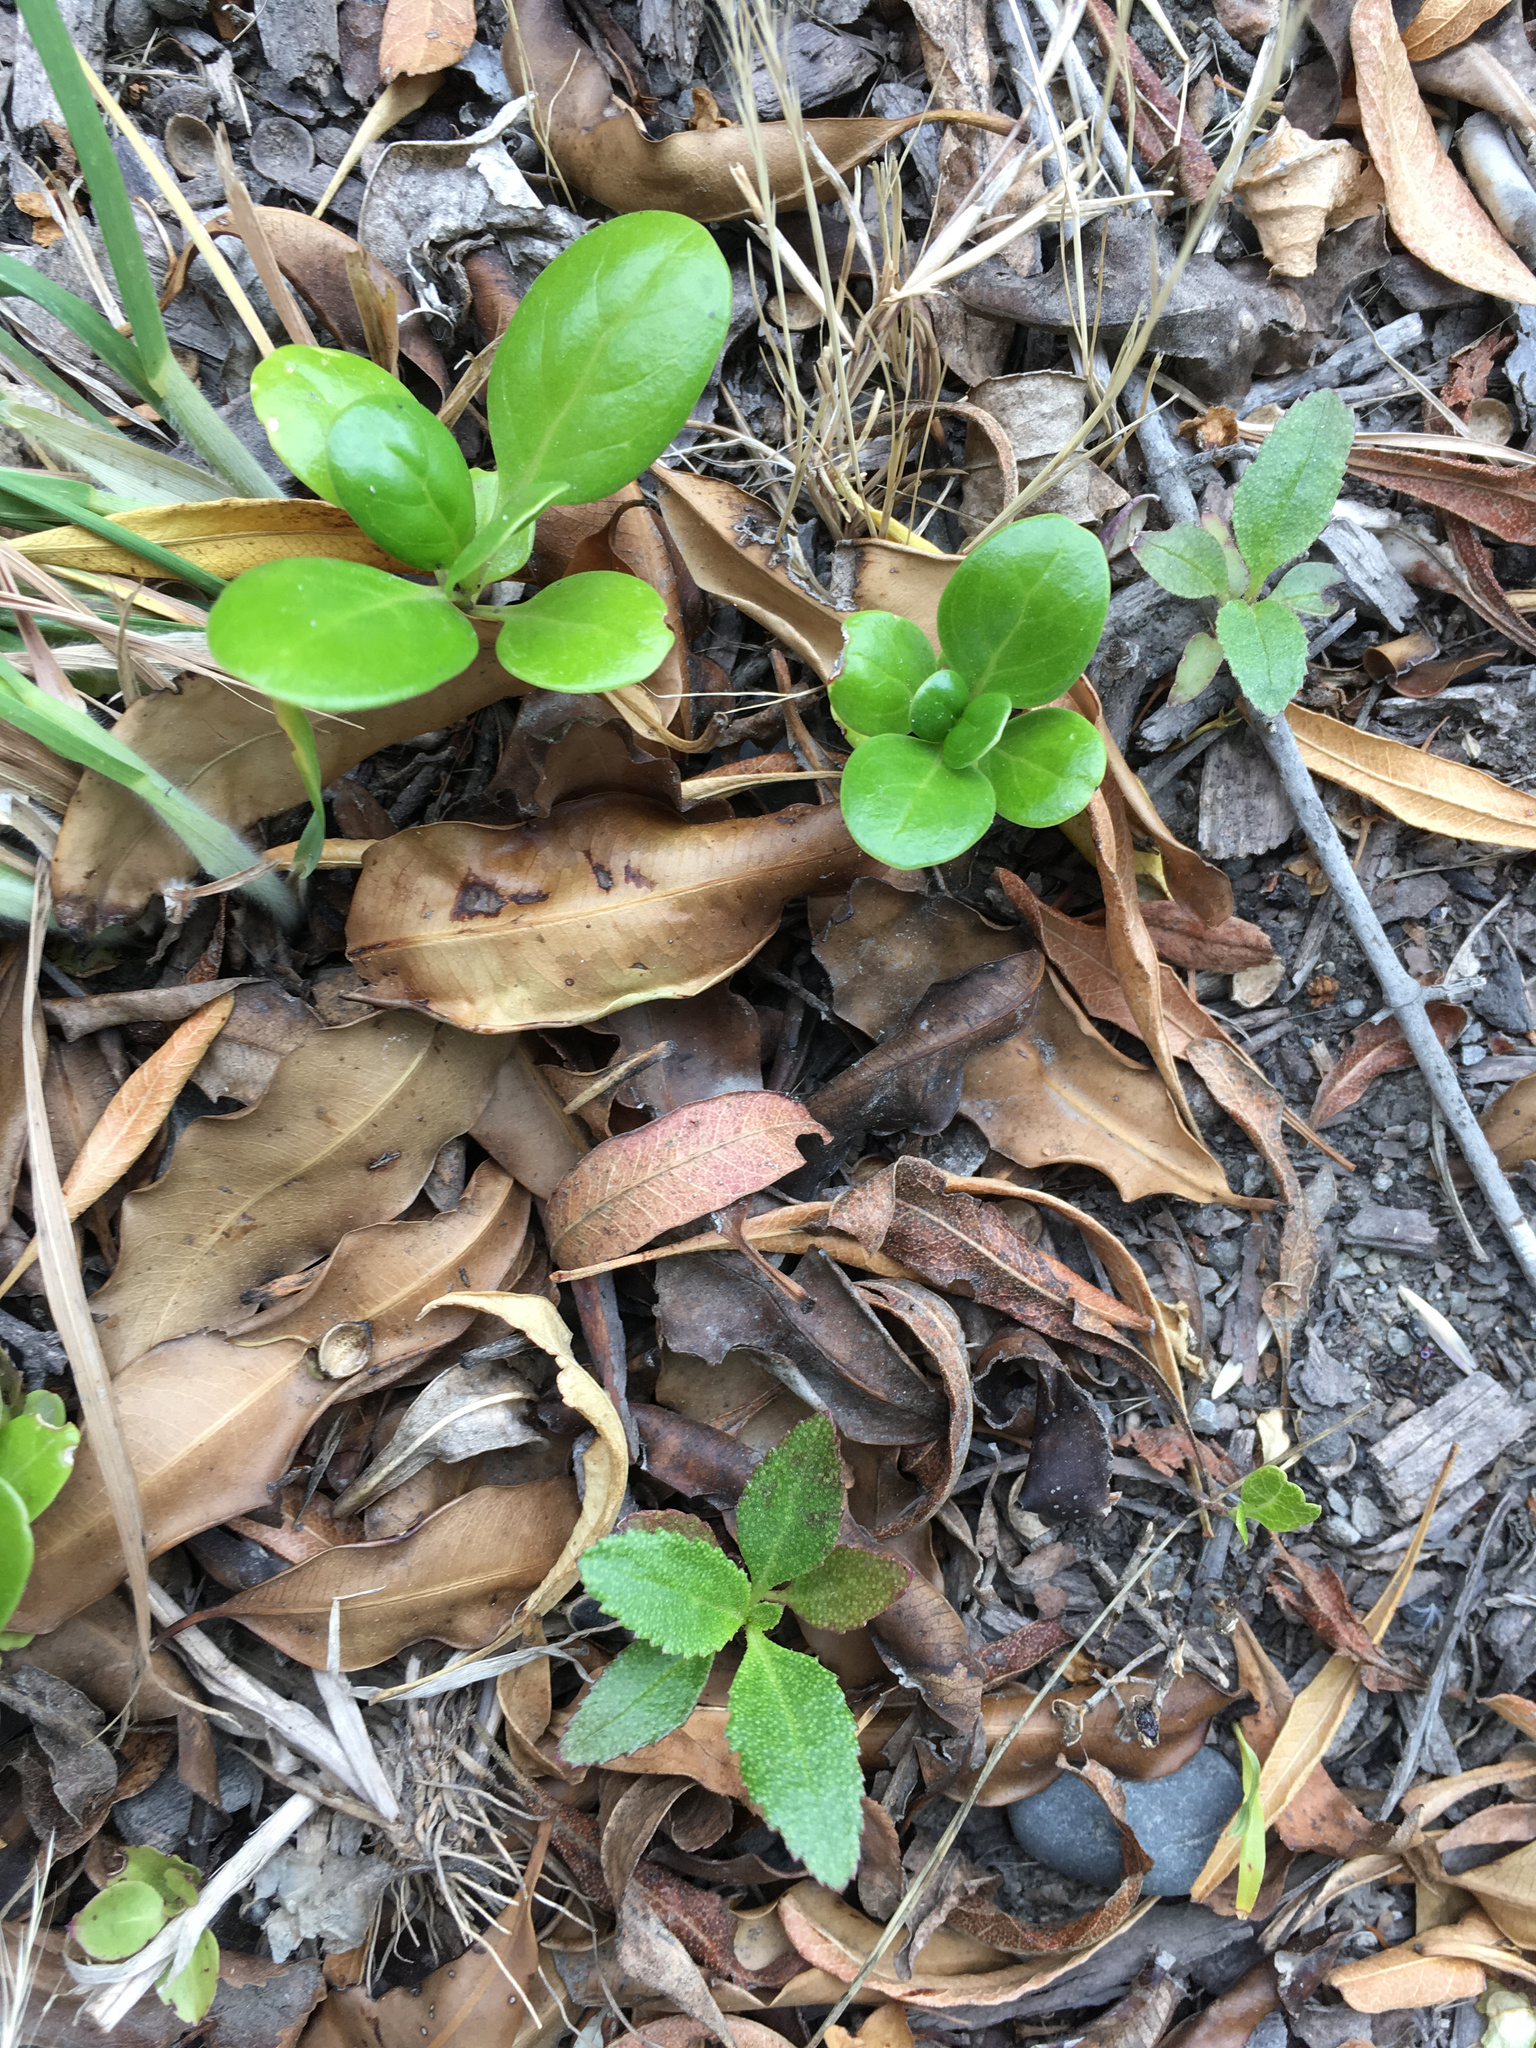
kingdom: Plantae
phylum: Tracheophyta
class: Magnoliopsida
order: Gentianales
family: Rubiaceae
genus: Coprosma
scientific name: Coprosma repens
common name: Tree bedstraw
